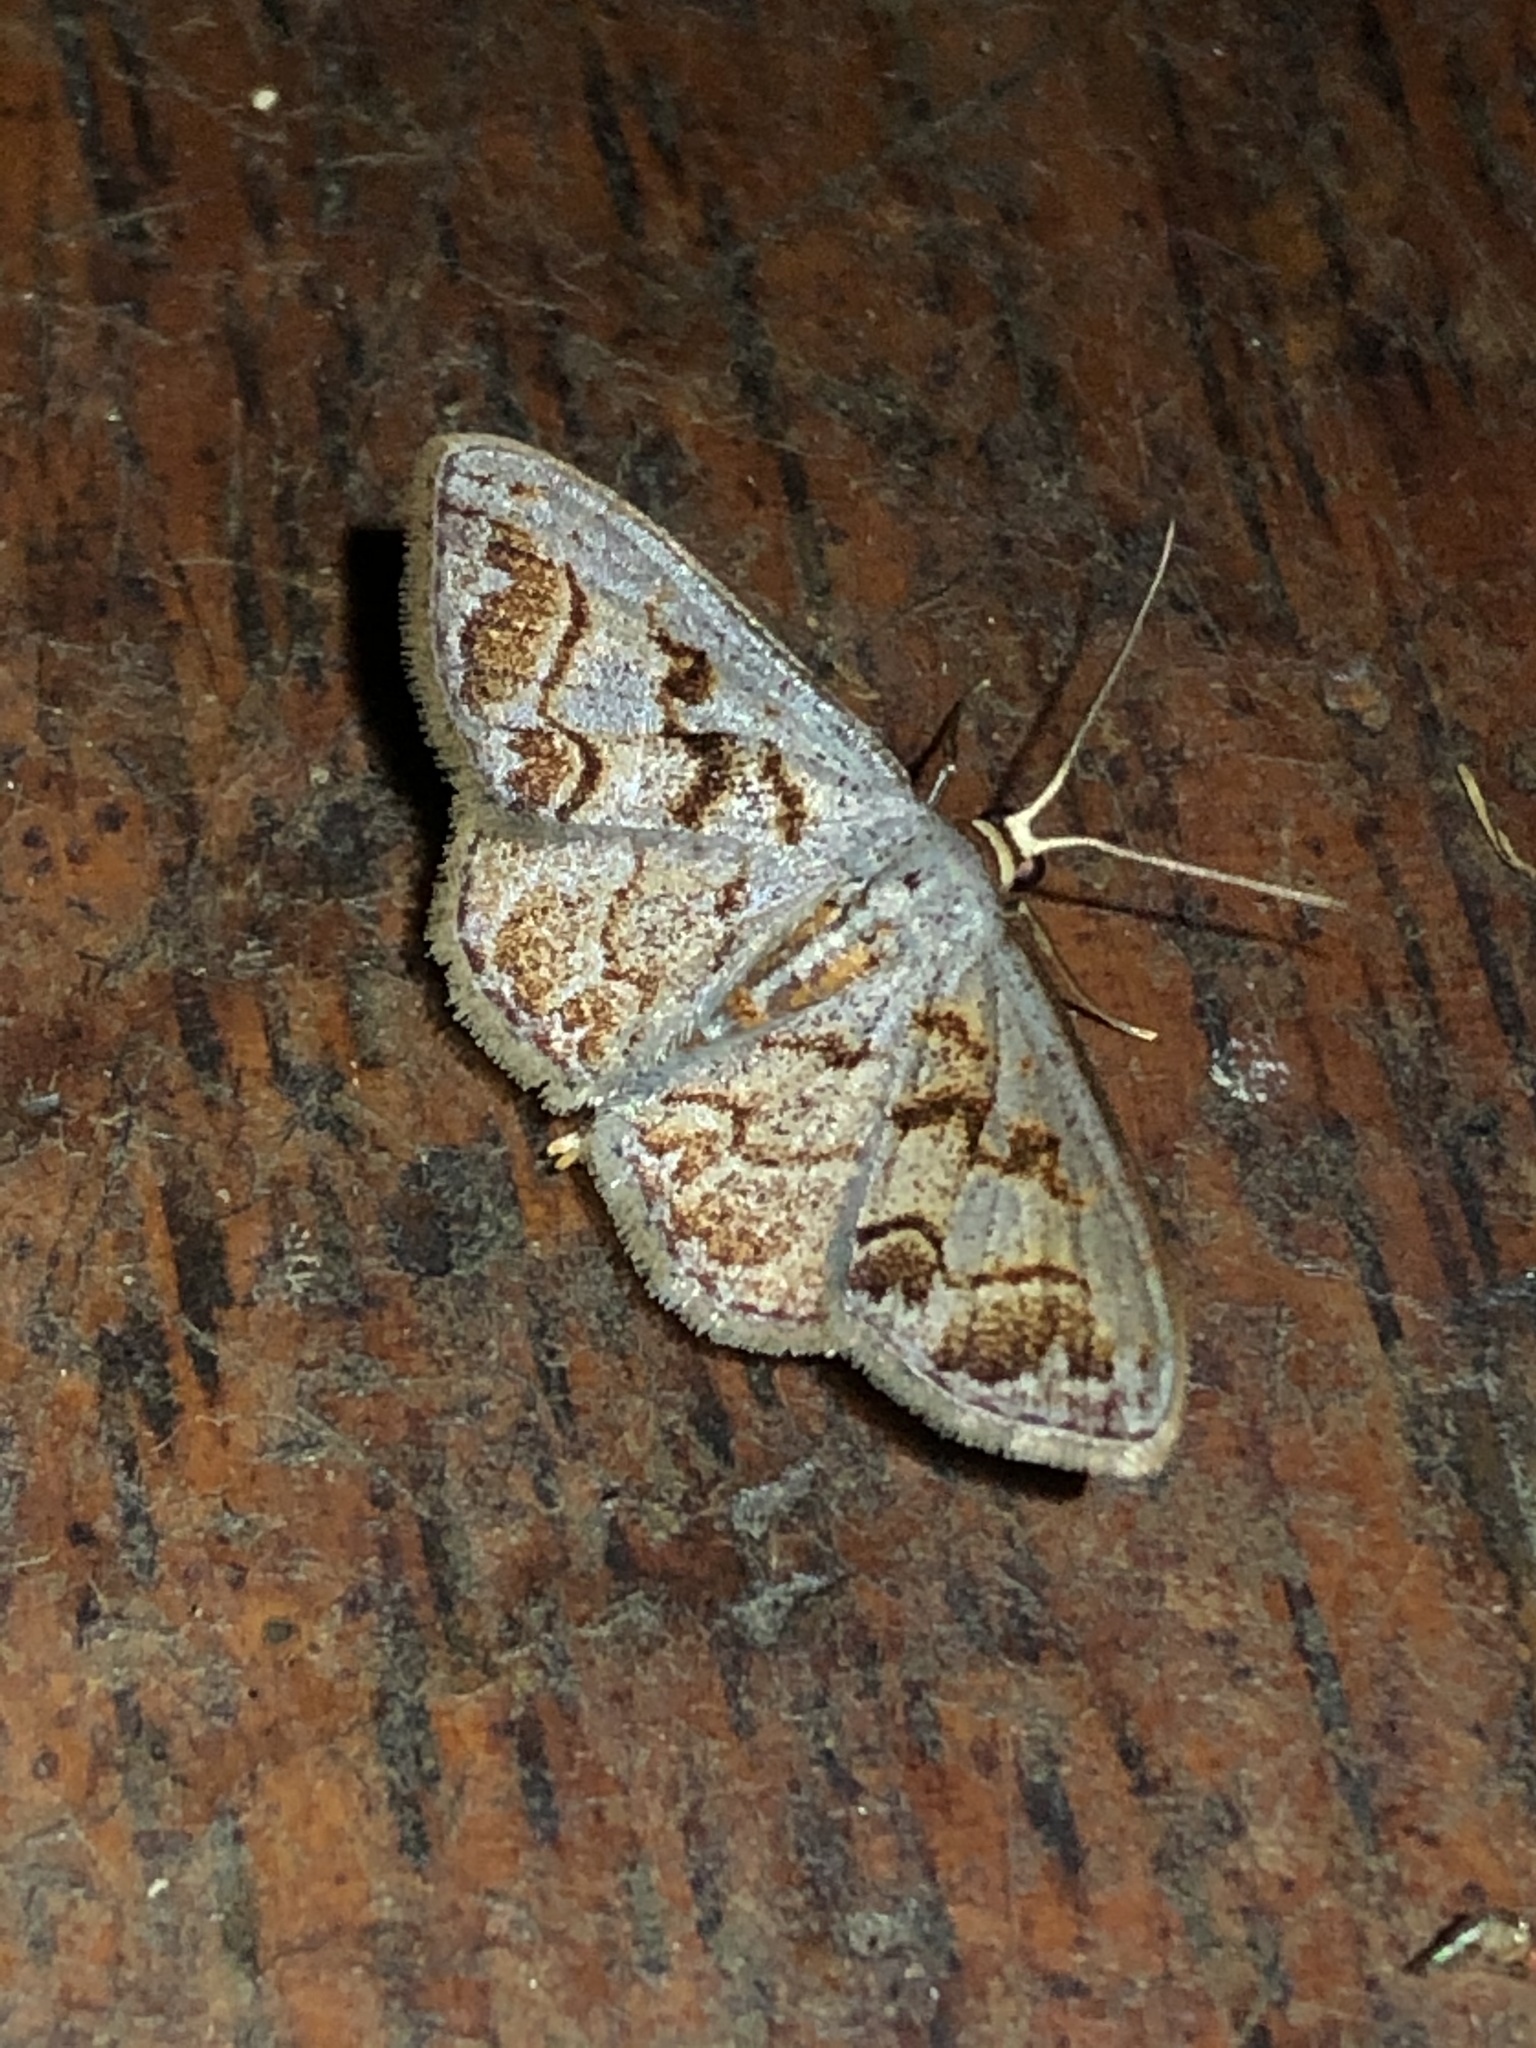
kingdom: Animalia
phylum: Arthropoda
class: Insecta
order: Lepidoptera
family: Geometridae
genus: Idaea
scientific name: Idaea subfervens
